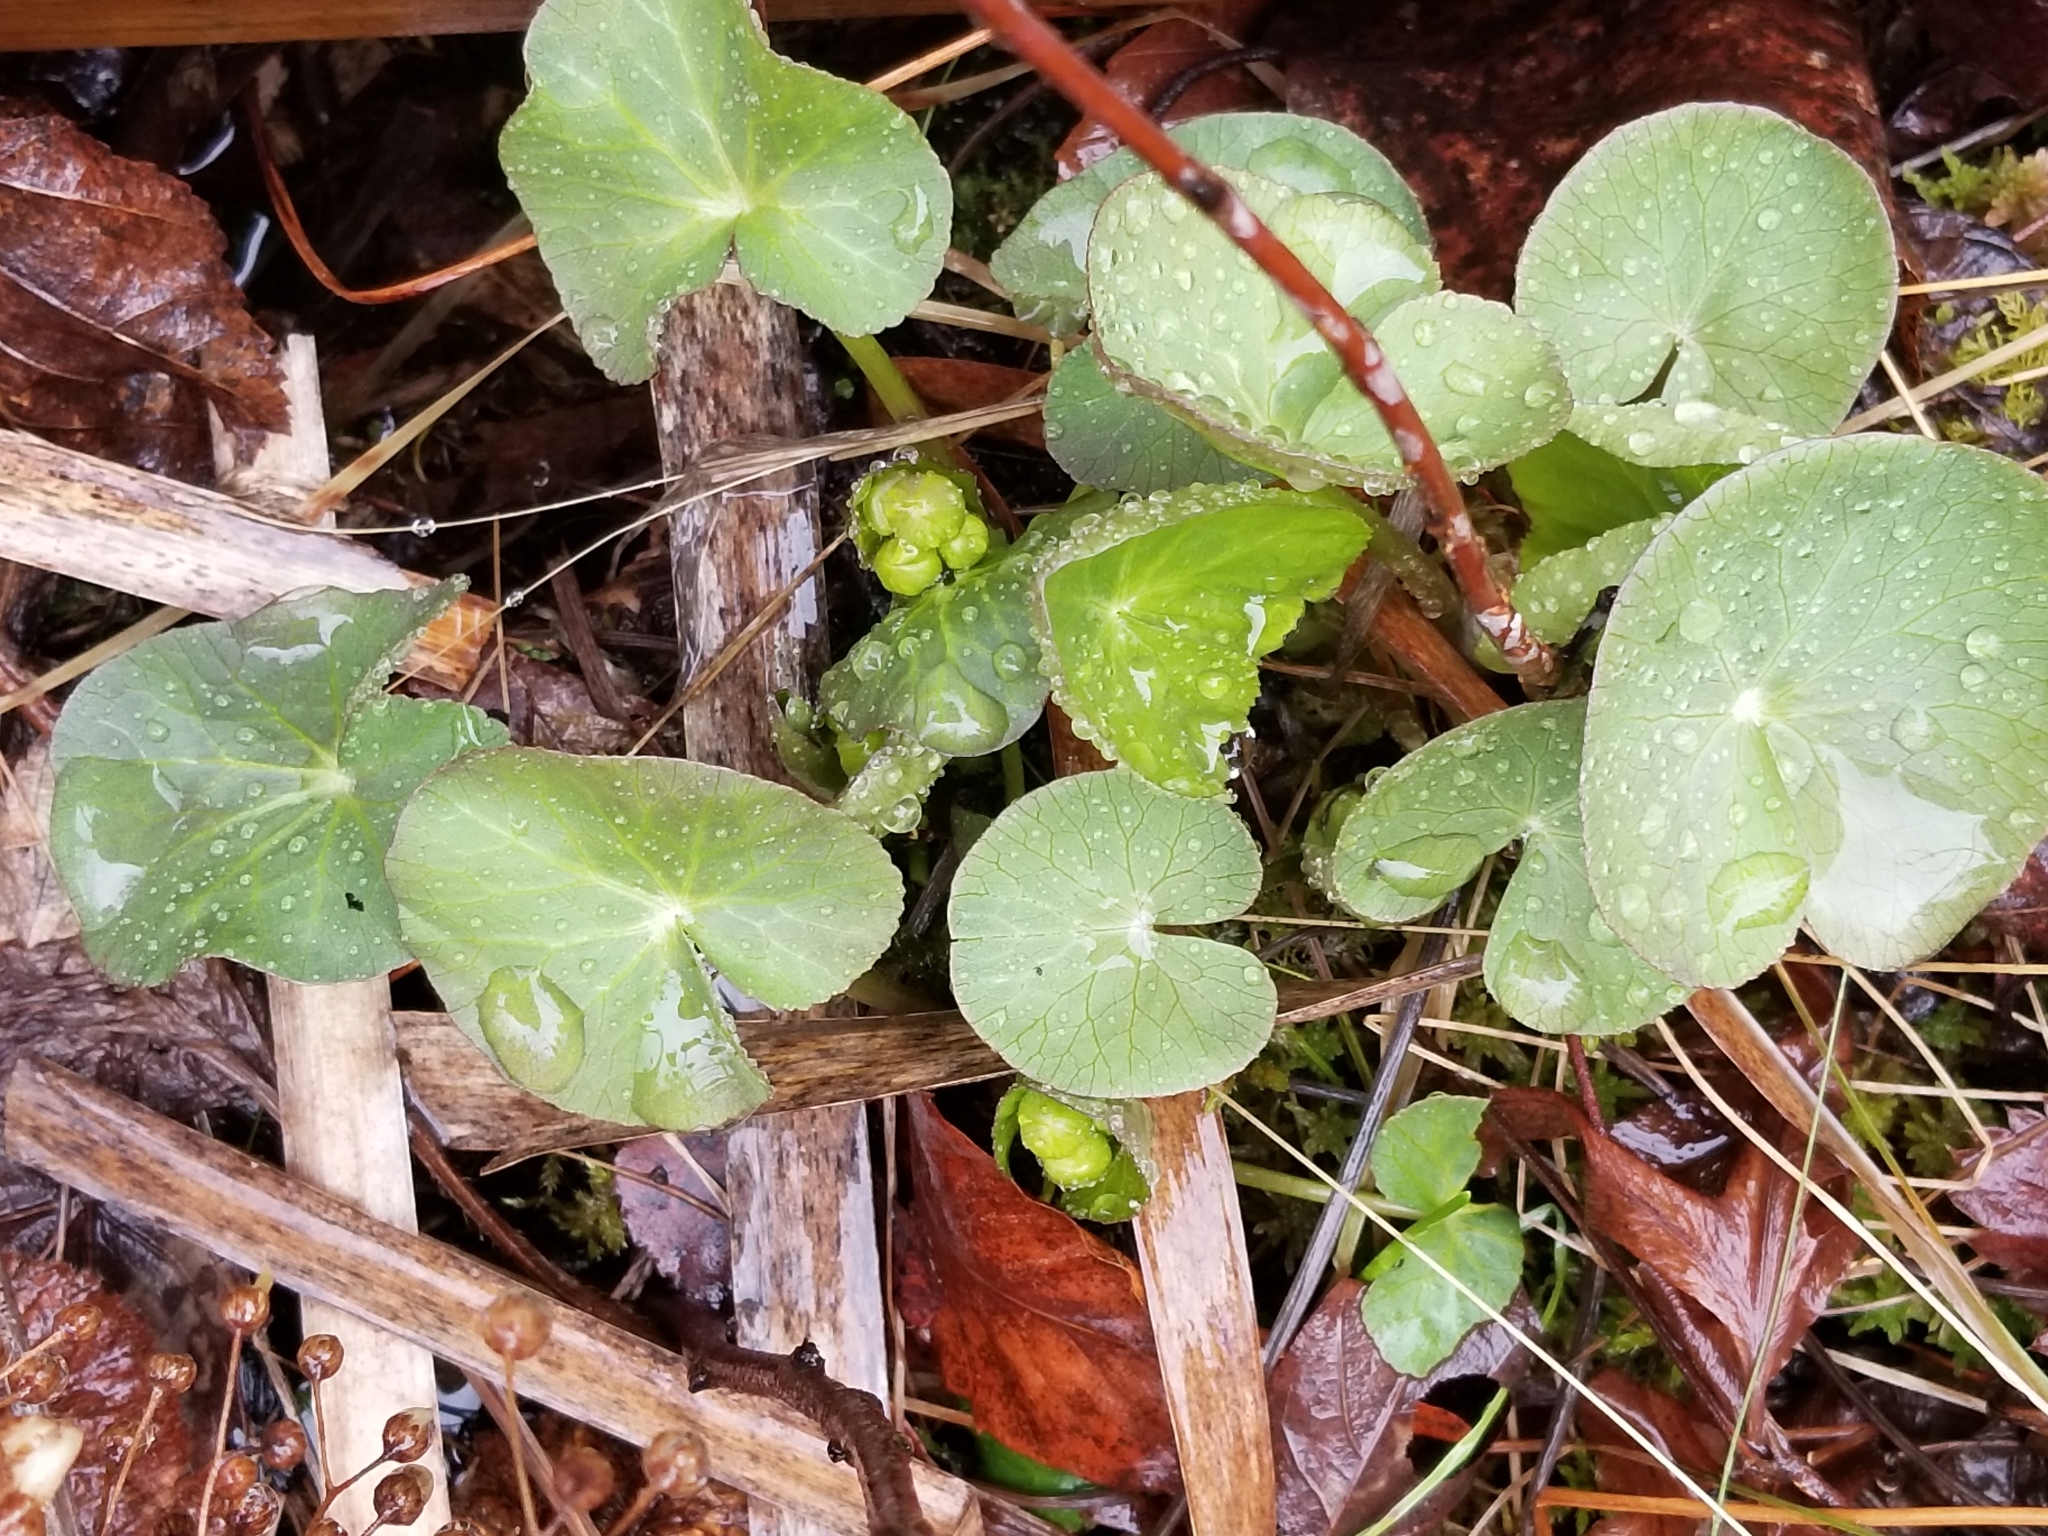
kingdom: Plantae
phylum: Tracheophyta
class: Magnoliopsida
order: Ranunculales
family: Ranunculaceae
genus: Caltha
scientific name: Caltha palustris
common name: Marsh marigold
